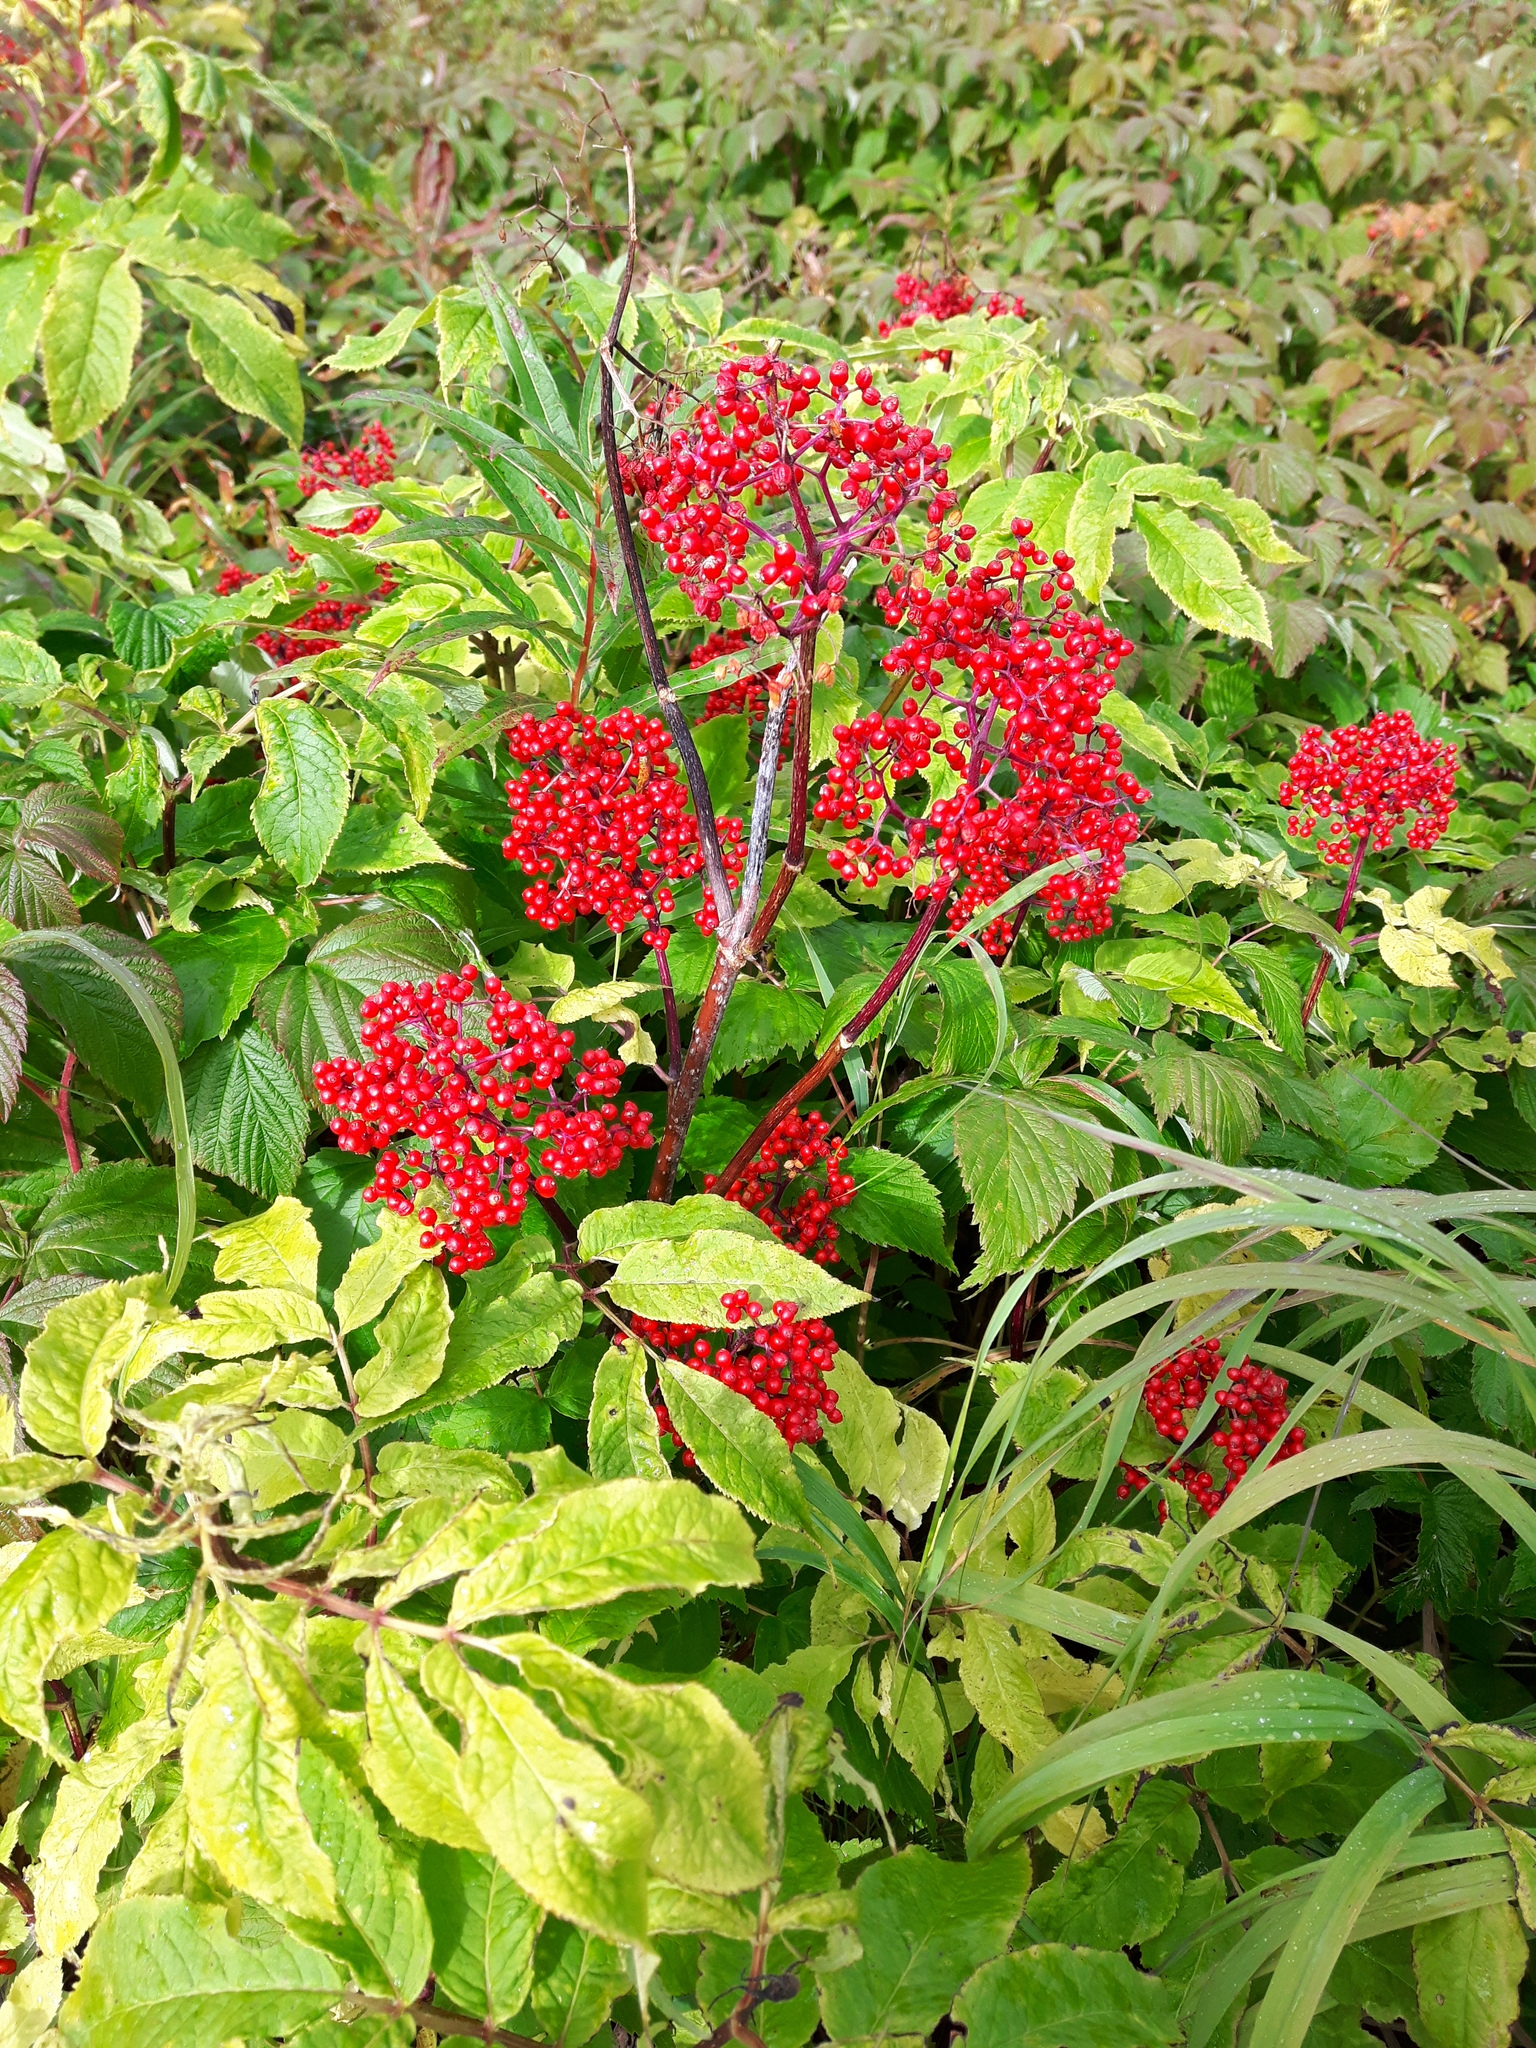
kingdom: Plantae
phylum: Tracheophyta
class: Magnoliopsida
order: Dipsacales
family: Viburnaceae
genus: Sambucus
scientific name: Sambucus racemosa
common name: Red-berried elder
